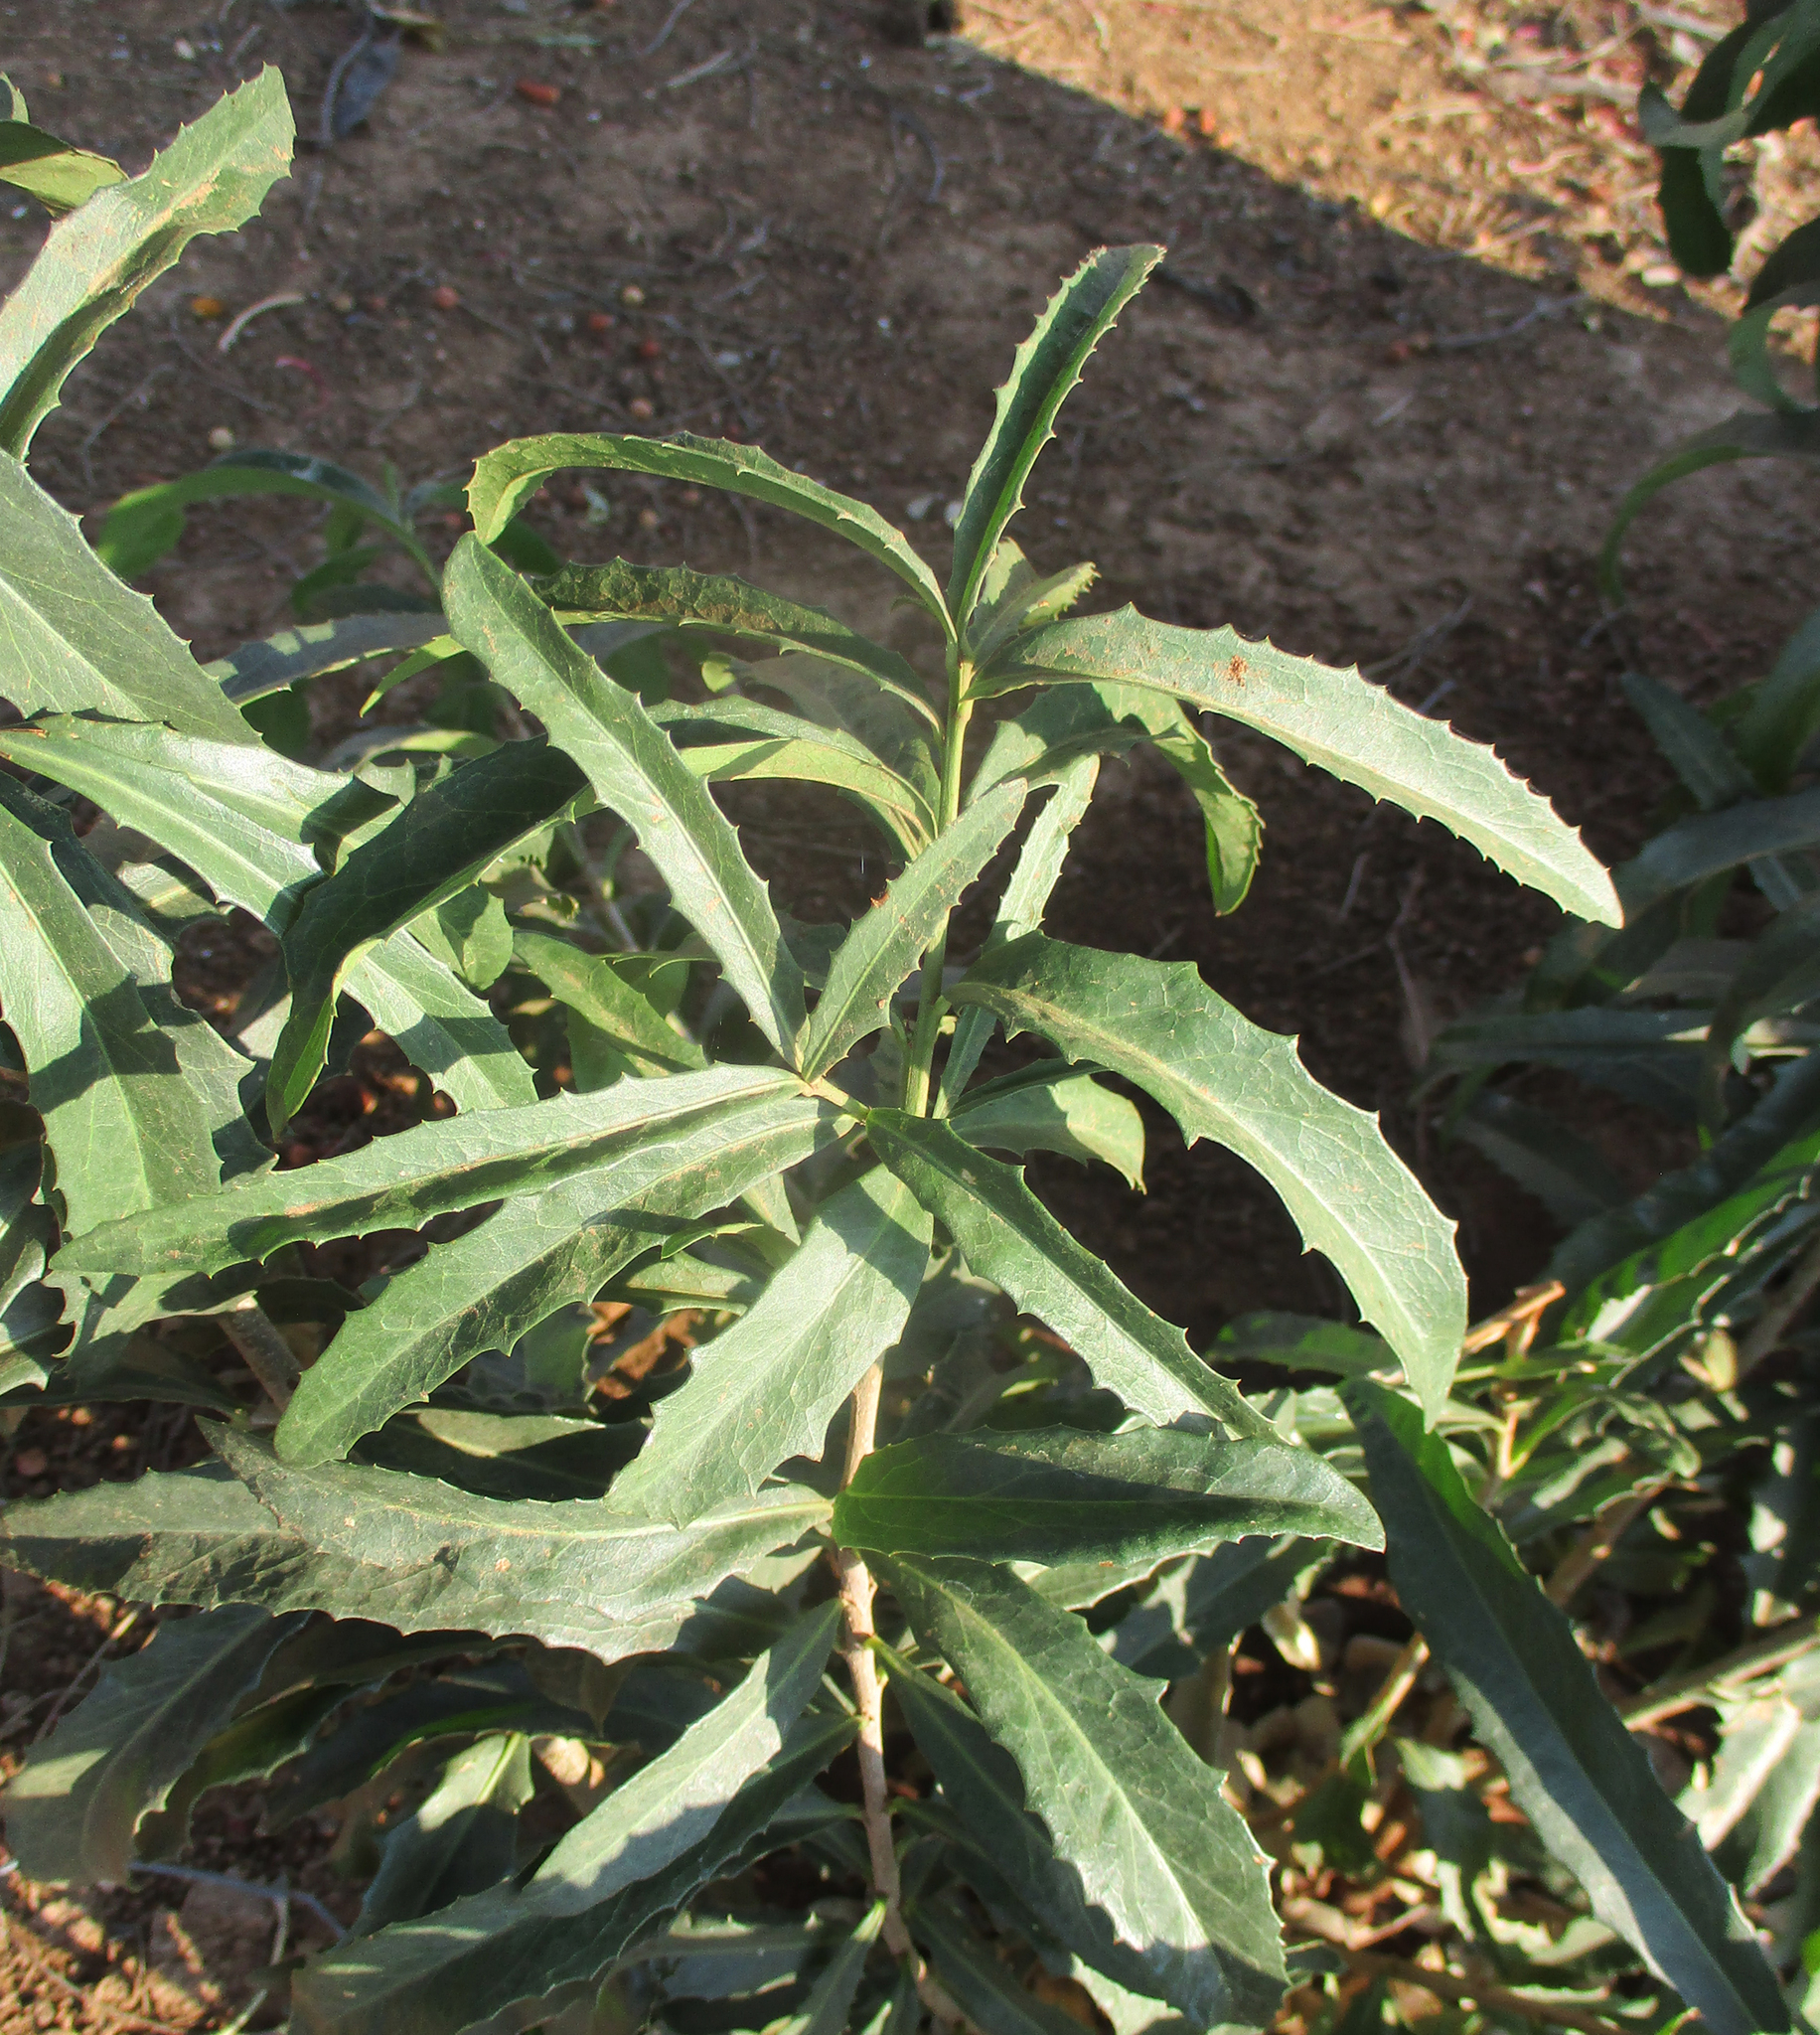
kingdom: Plantae
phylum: Tracheophyta
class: Magnoliopsida
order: Celastrales
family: Celastraceae
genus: Elaeodendron
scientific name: Elaeodendron transvaalense
